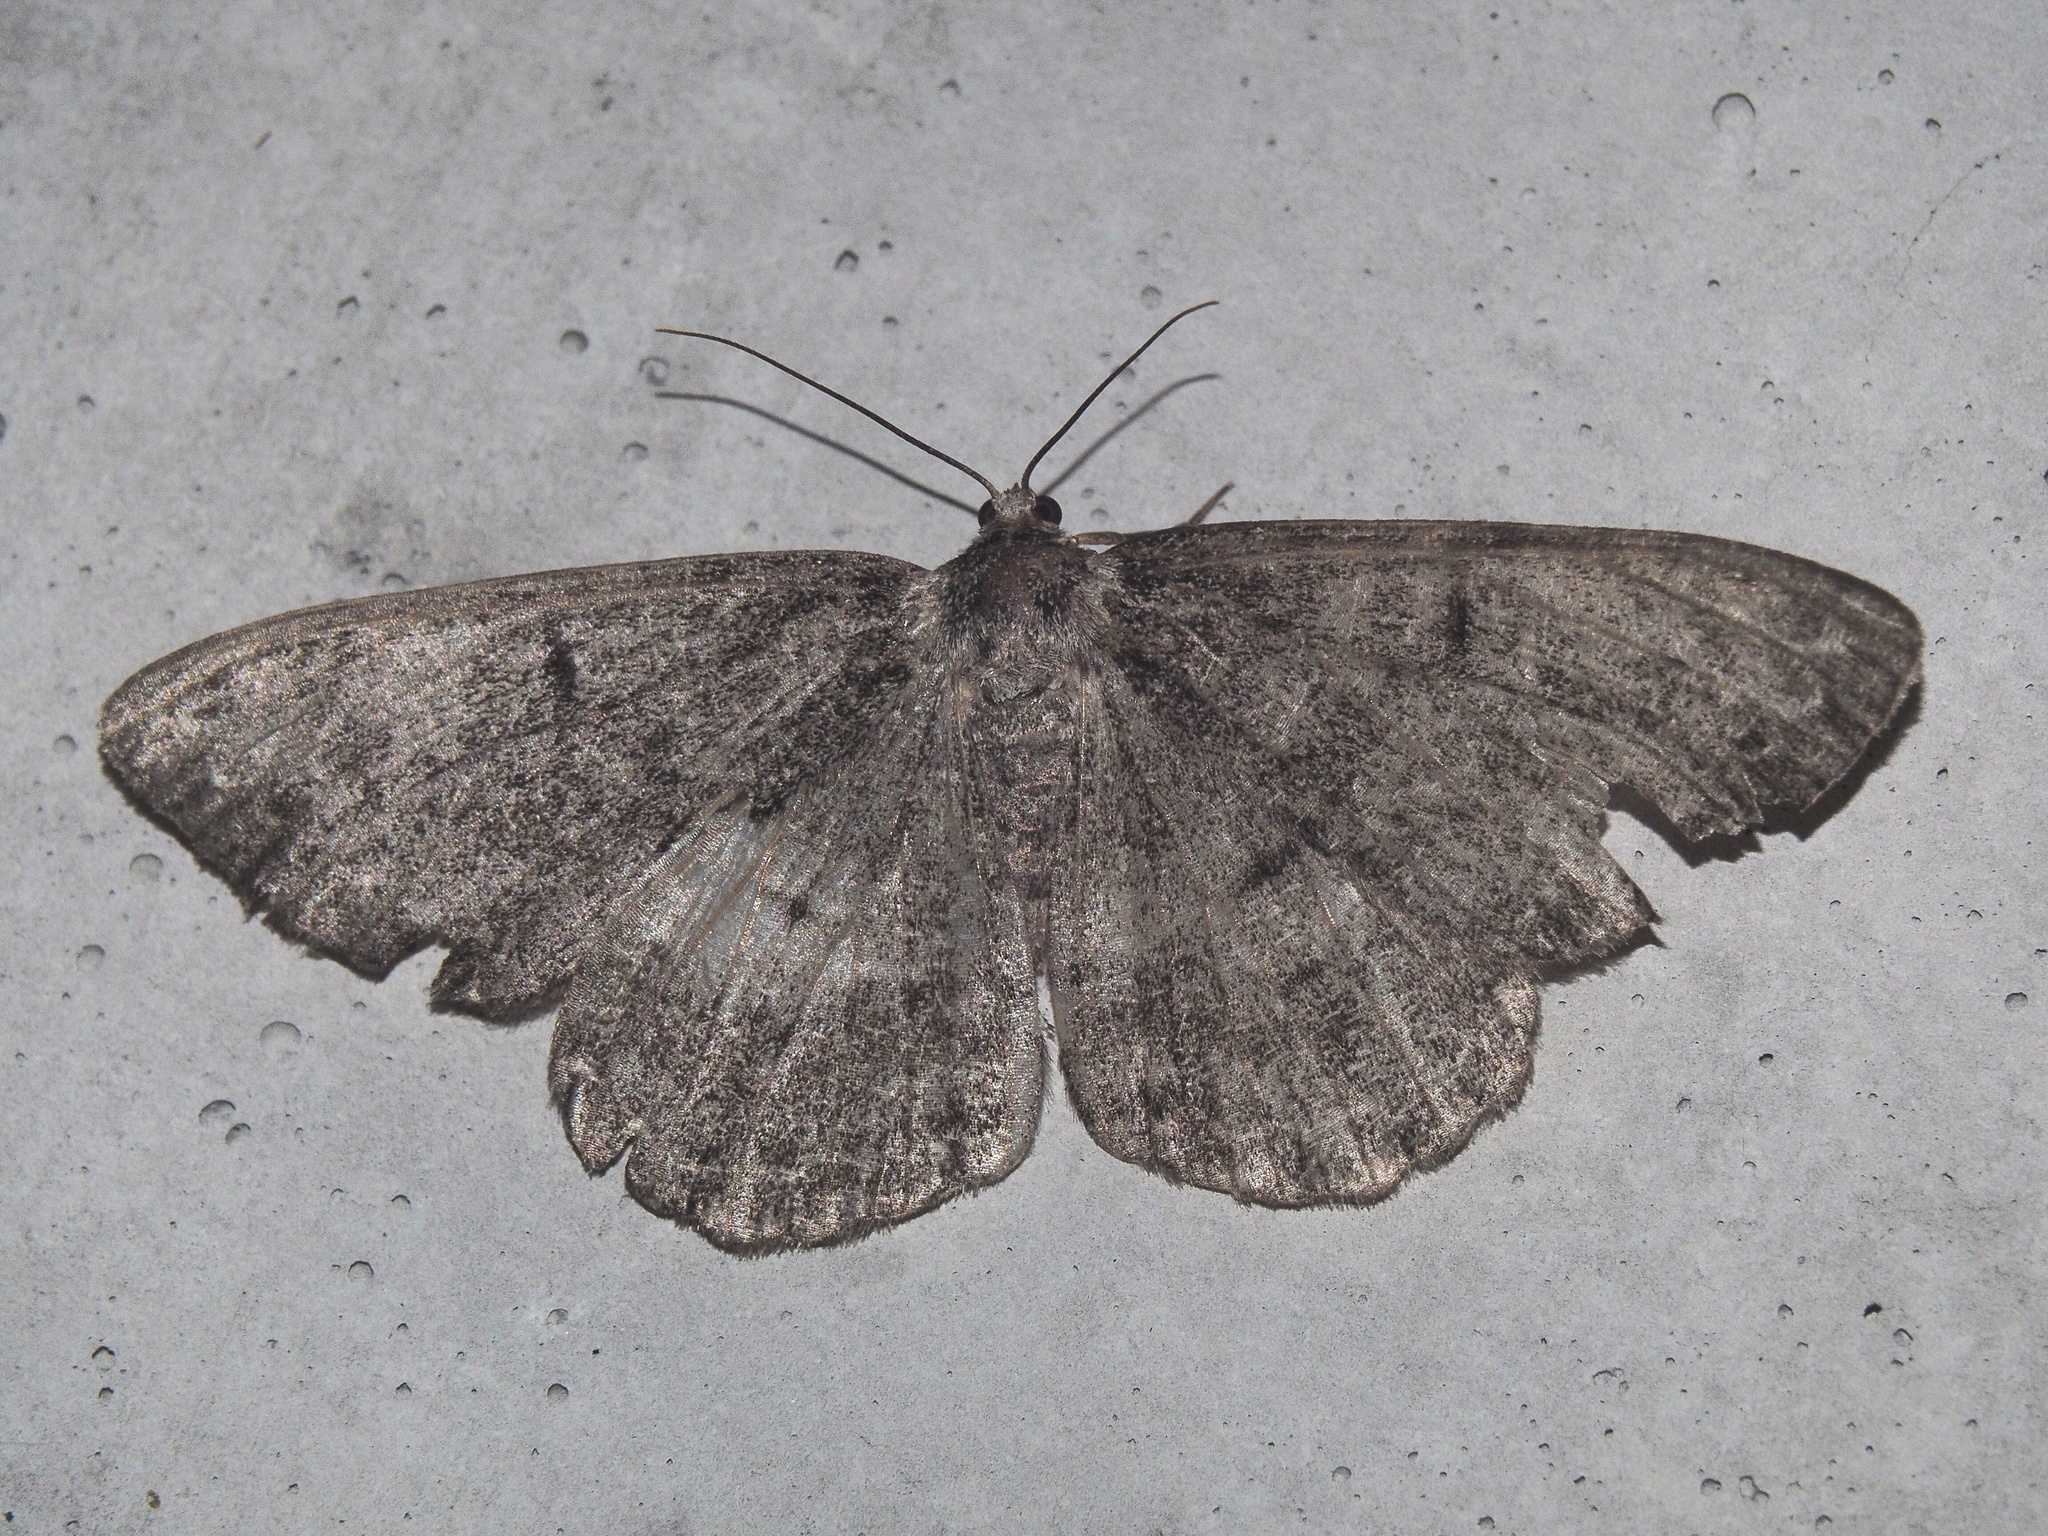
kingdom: Animalia
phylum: Arthropoda
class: Insecta
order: Lepidoptera
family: Geometridae
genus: Hypomecis
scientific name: Hypomecis roboraria
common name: Great oak beauty
